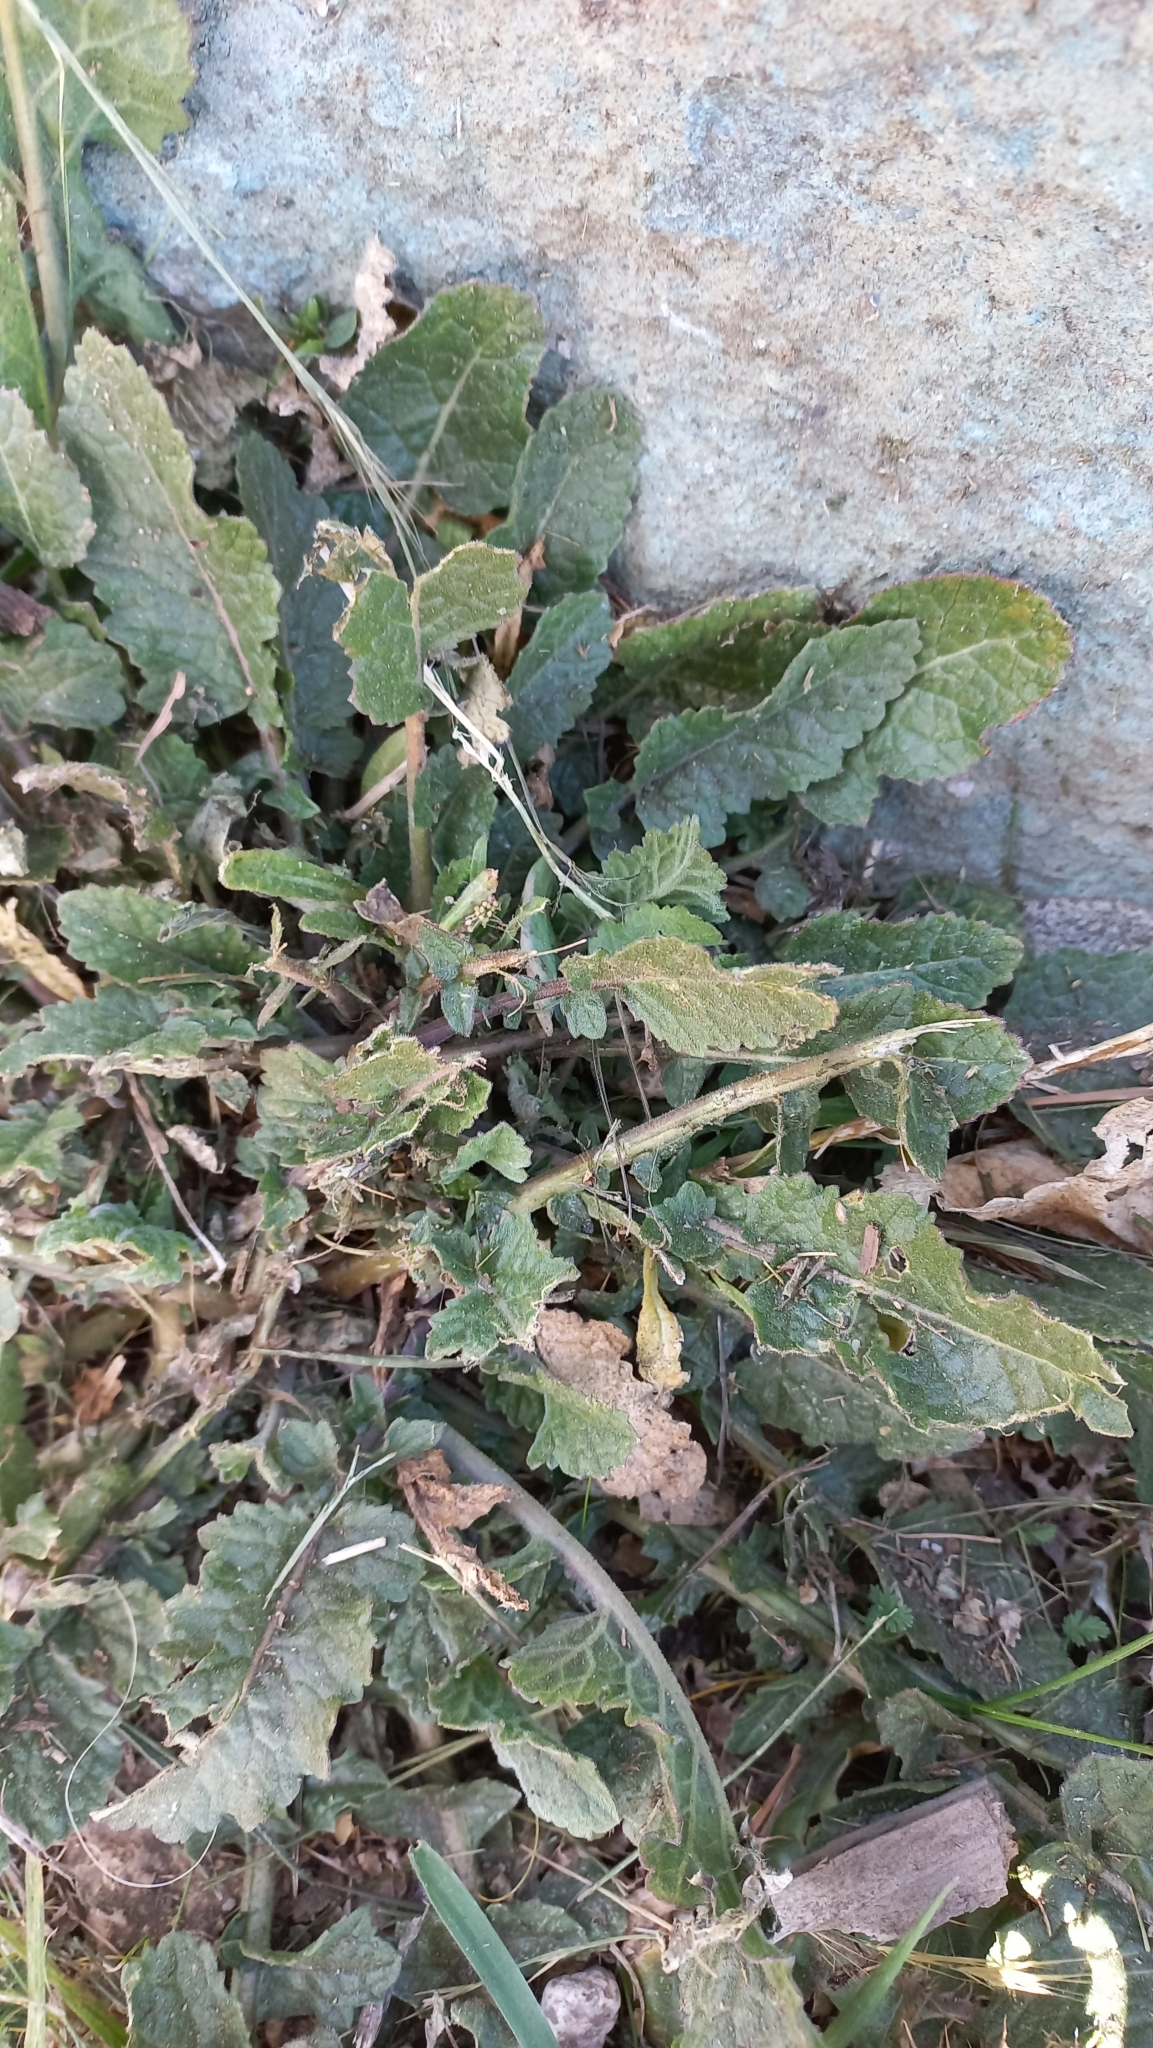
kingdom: Plantae
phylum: Tracheophyta
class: Magnoliopsida
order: Brassicales
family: Brassicaceae
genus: Rapistrum
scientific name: Rapistrum rugosum
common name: Annual bastardcabbage
